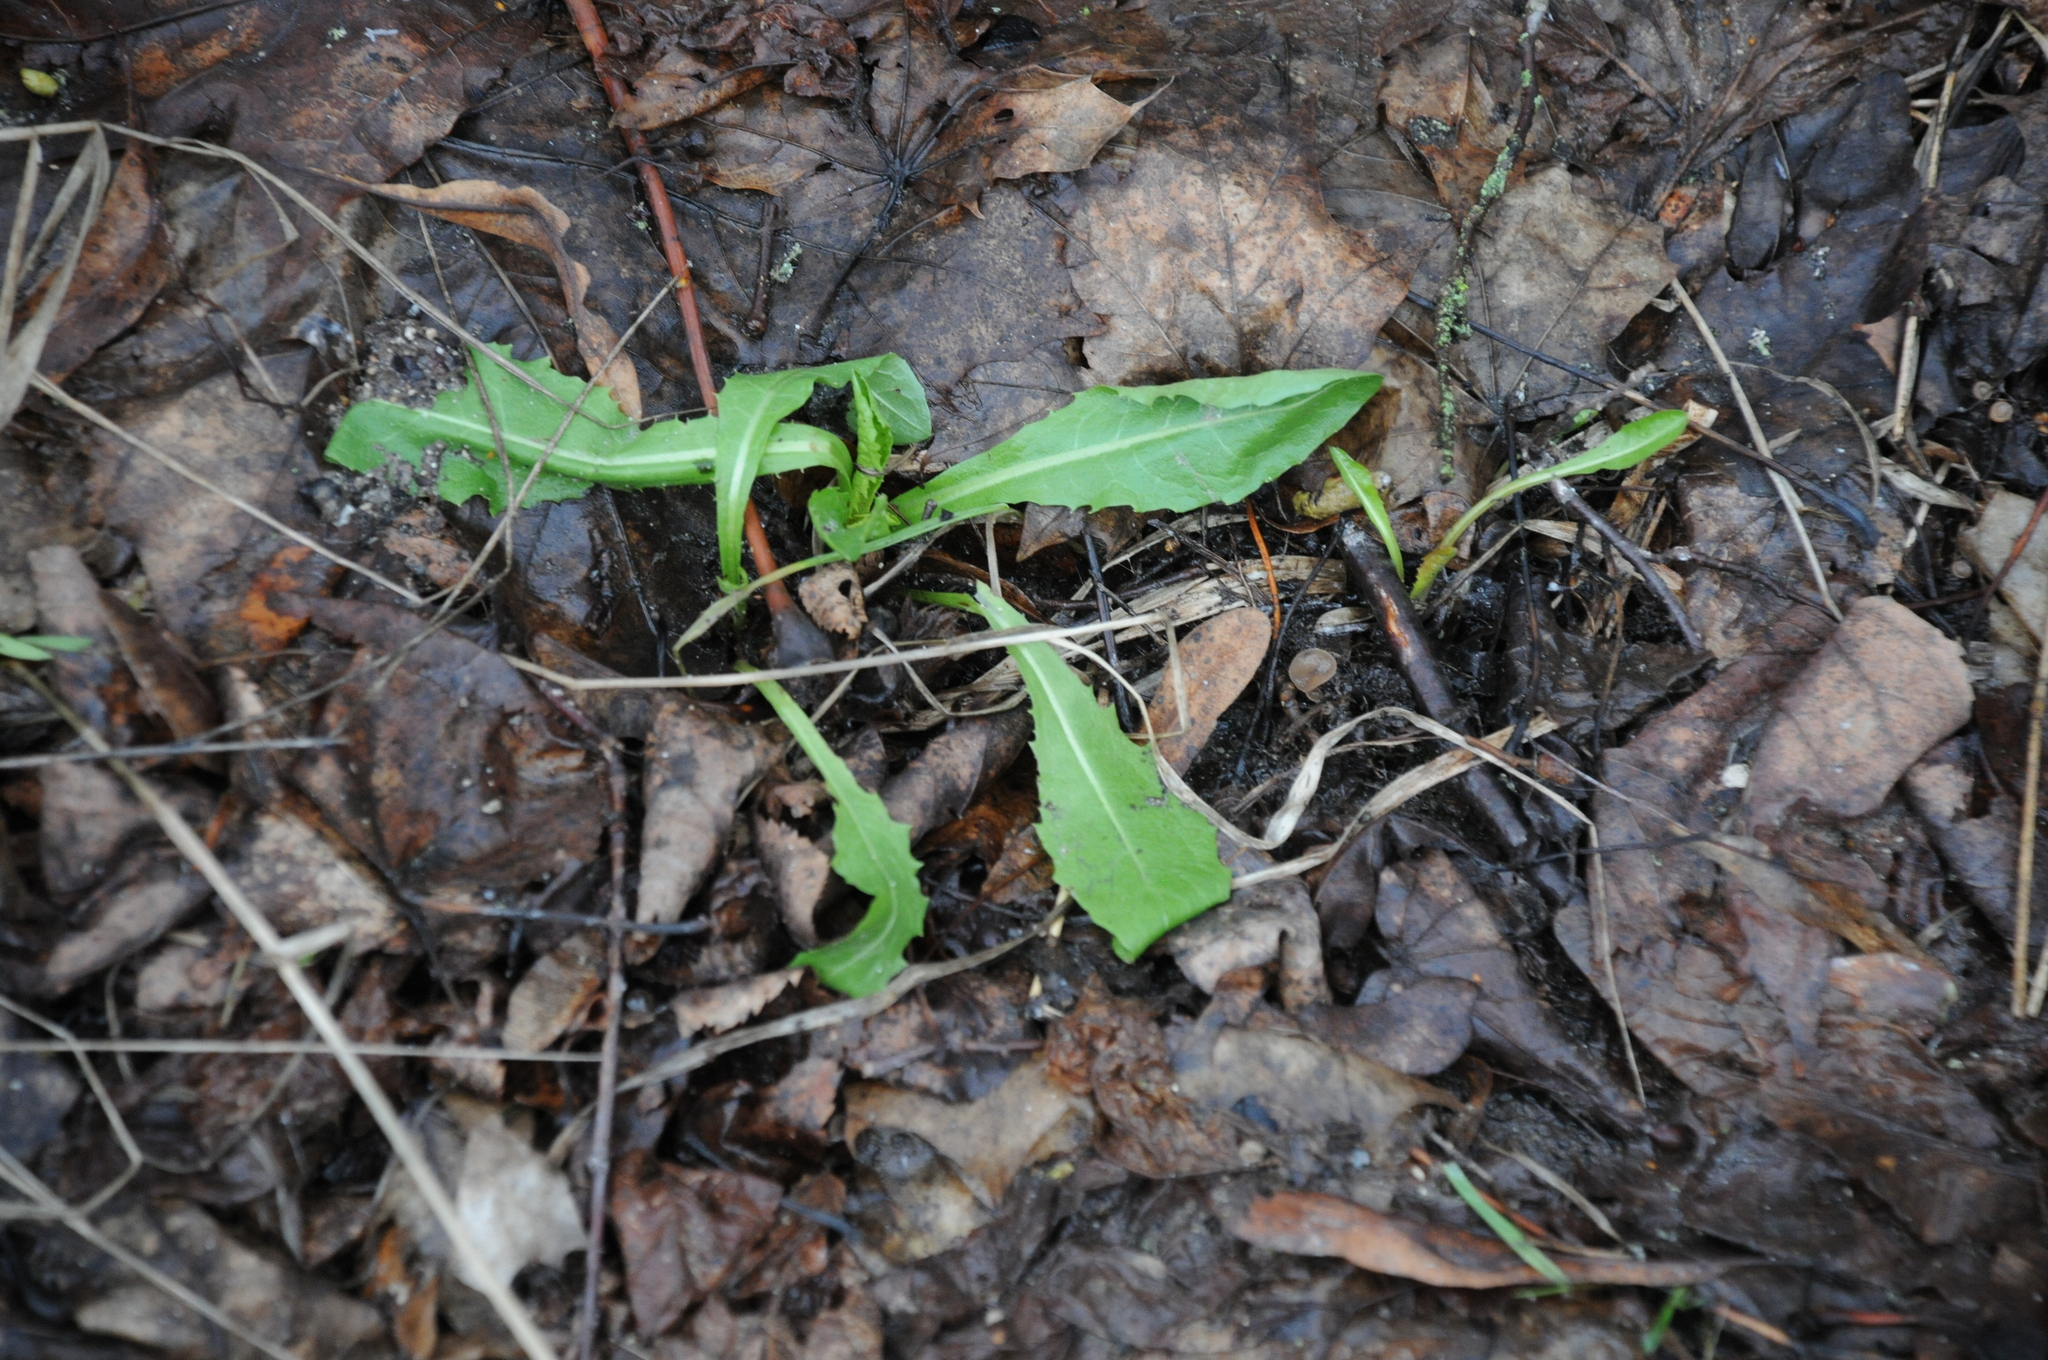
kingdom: Plantae
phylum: Tracheophyta
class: Magnoliopsida
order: Asterales
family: Asteraceae
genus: Crepis
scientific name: Crepis paludosa
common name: Marsh hawk's-beard
